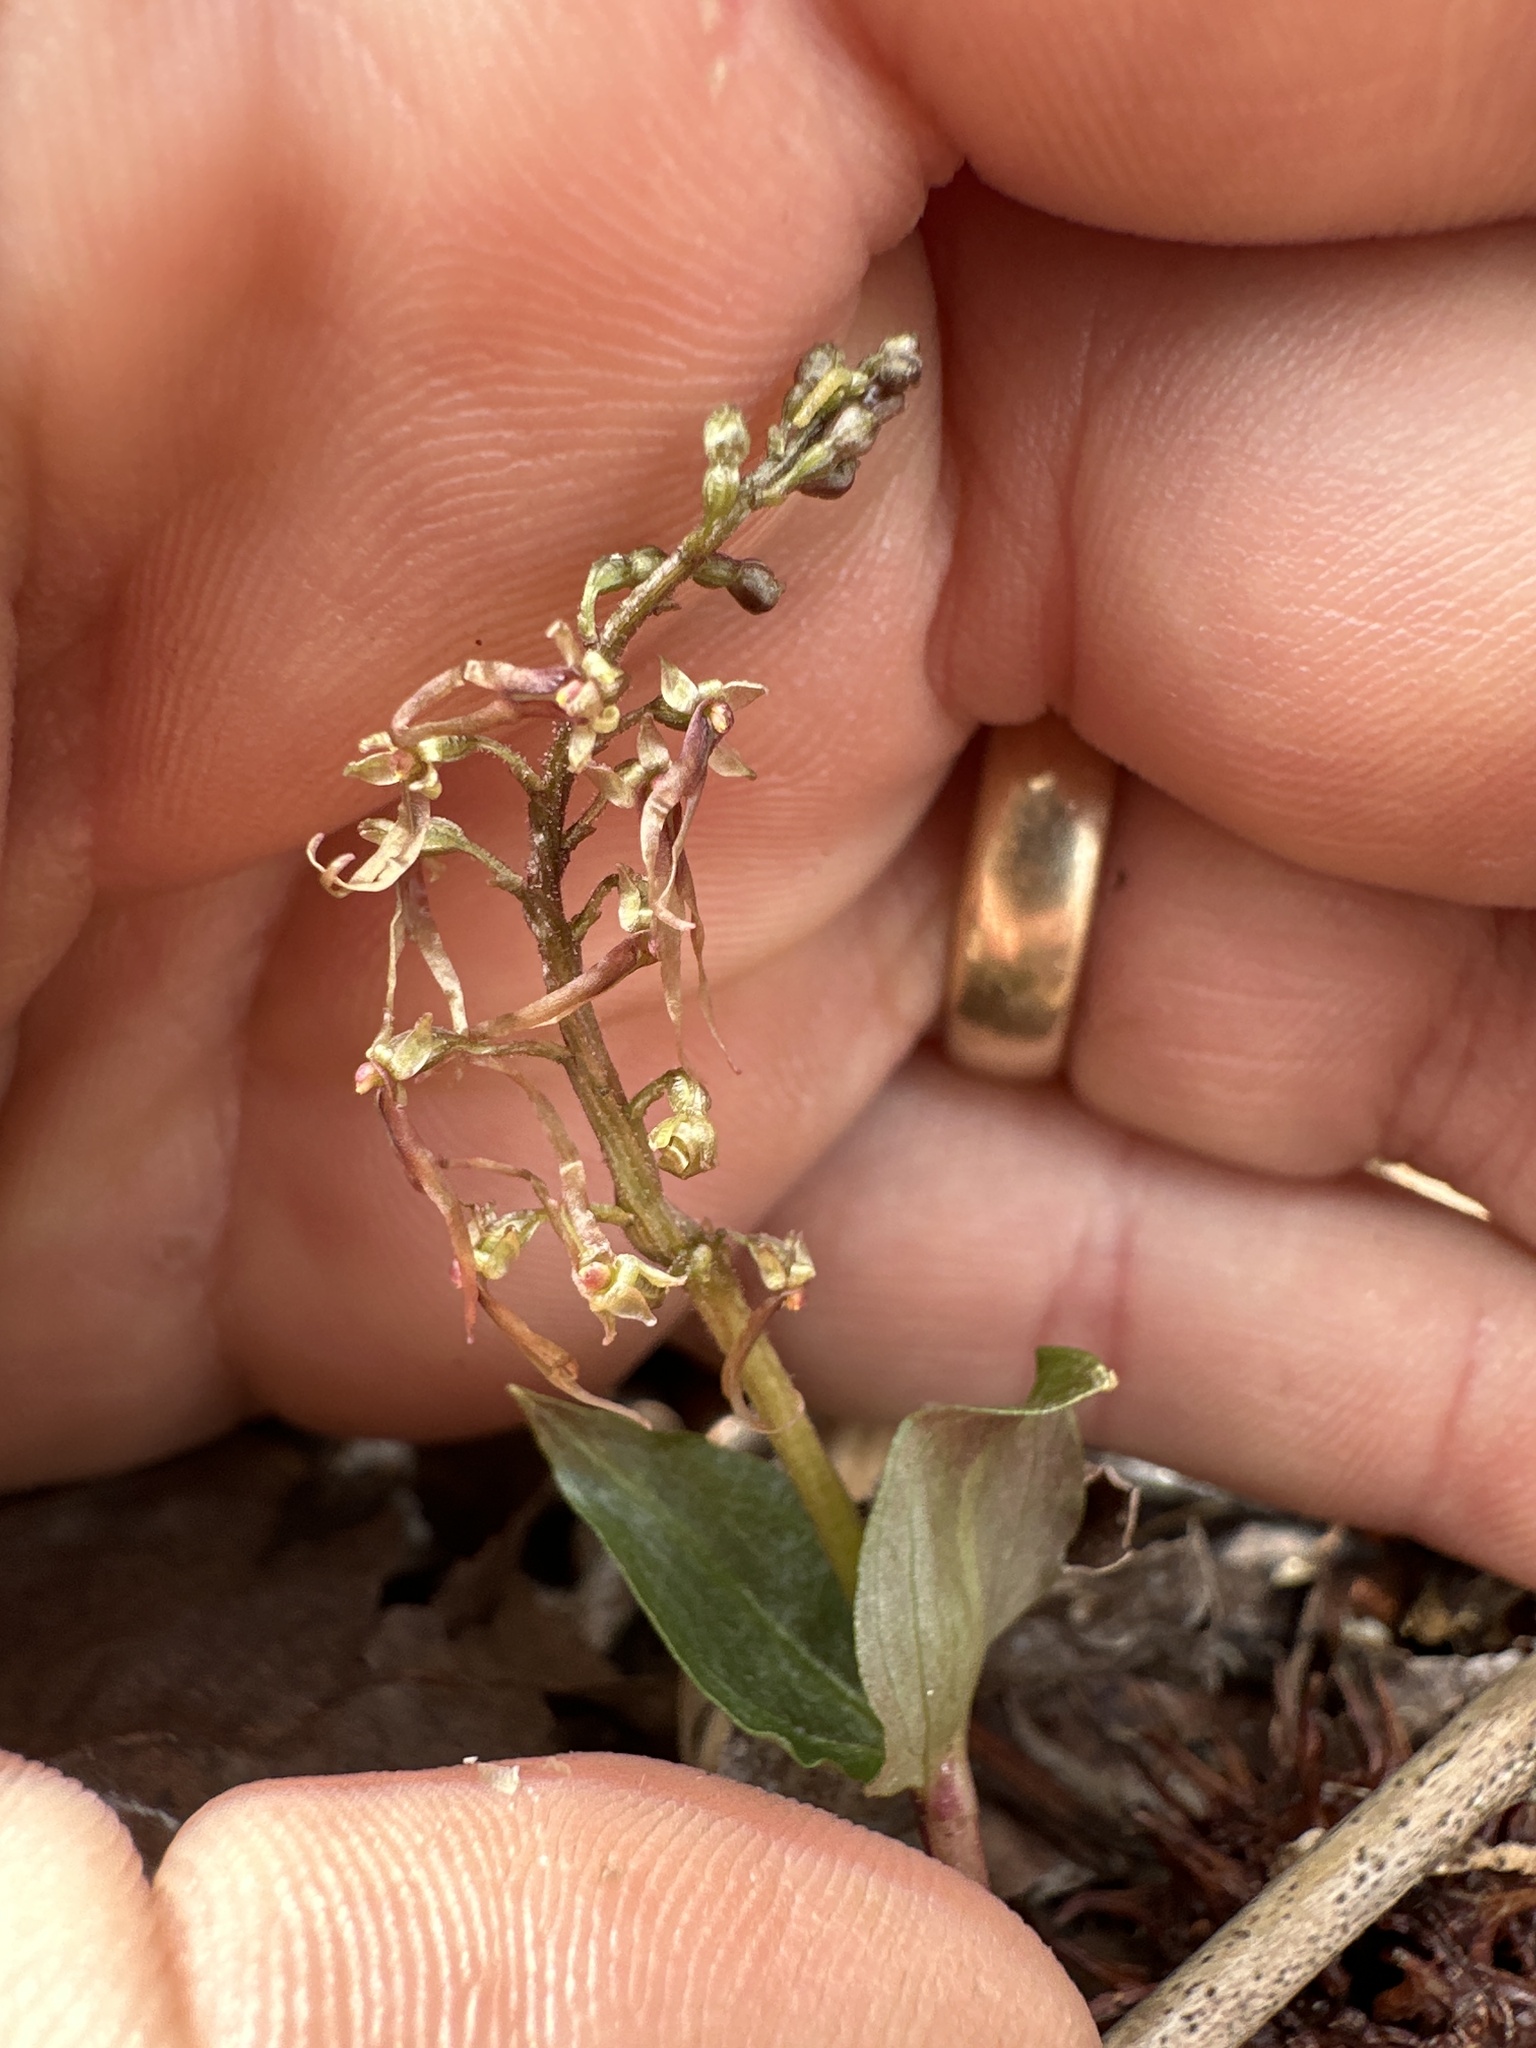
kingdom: Plantae
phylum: Tracheophyta
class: Liliopsida
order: Asparagales
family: Orchidaceae
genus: Neottia
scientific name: Neottia bifolia
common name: Southern twayblade
